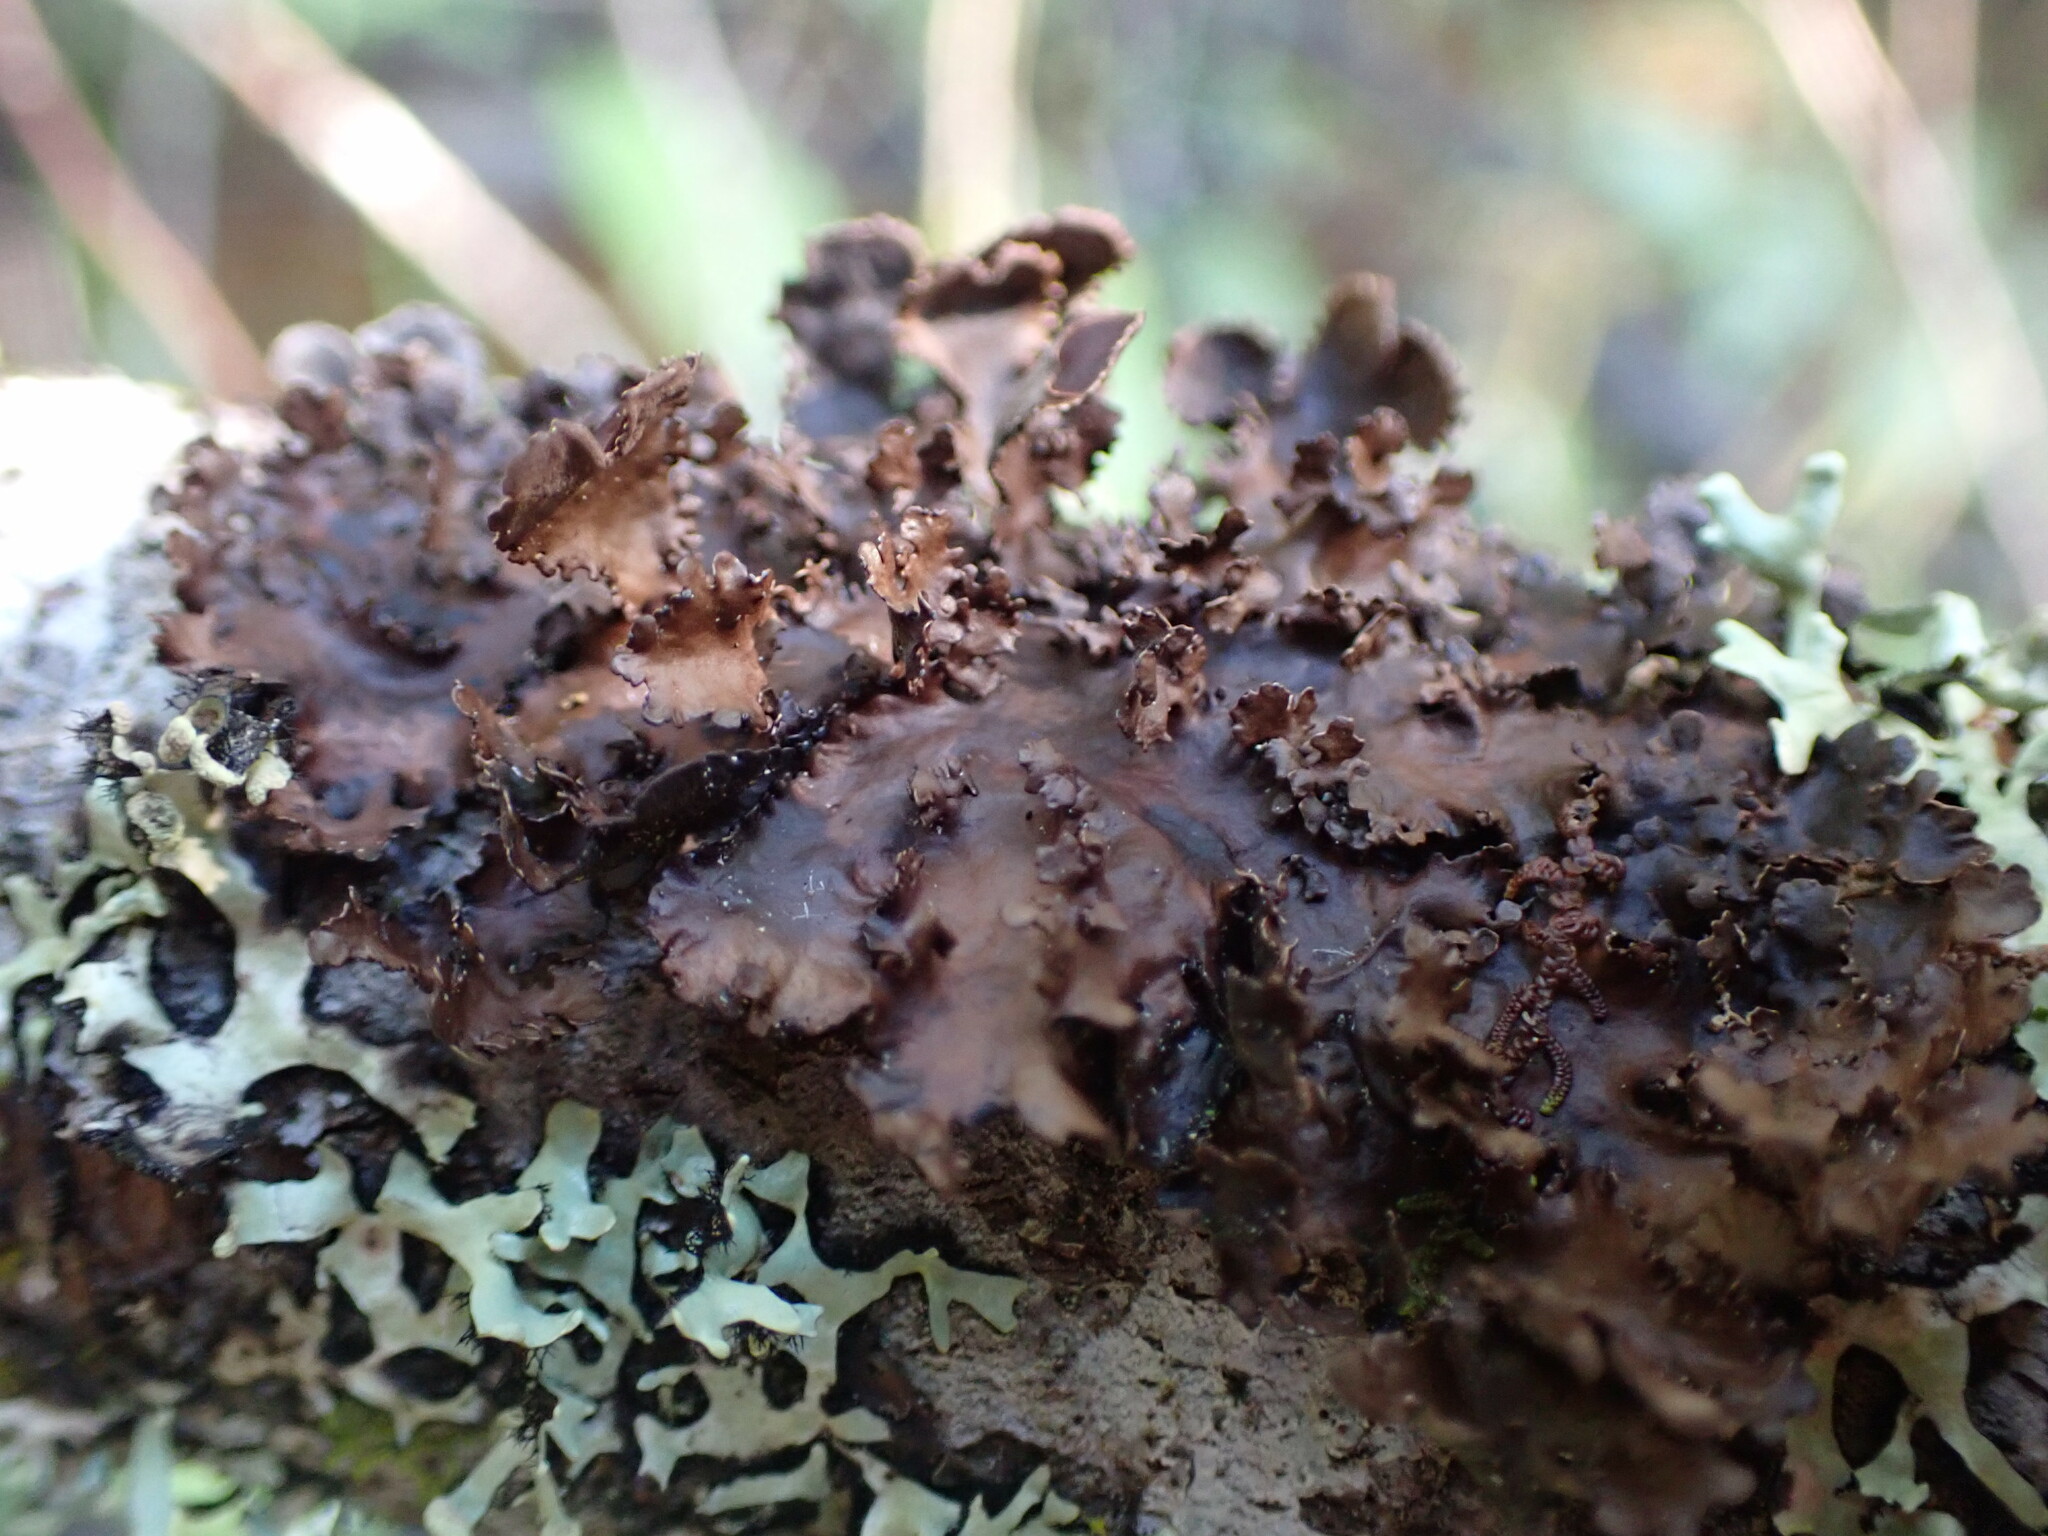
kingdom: Fungi
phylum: Ascomycota
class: Lecanoromycetes
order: Peltigerales
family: Nephromataceae
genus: Nephroma
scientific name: Nephroma helveticum
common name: Fringed kidney lichen
